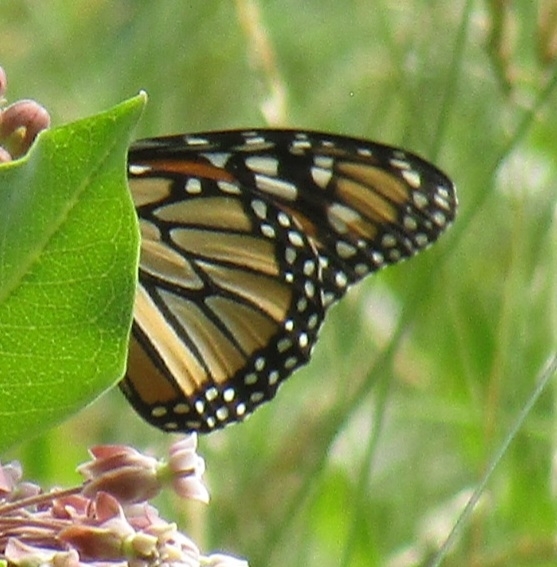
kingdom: Animalia
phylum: Arthropoda
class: Insecta
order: Lepidoptera
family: Nymphalidae
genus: Danaus
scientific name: Danaus plexippus
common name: Monarch
